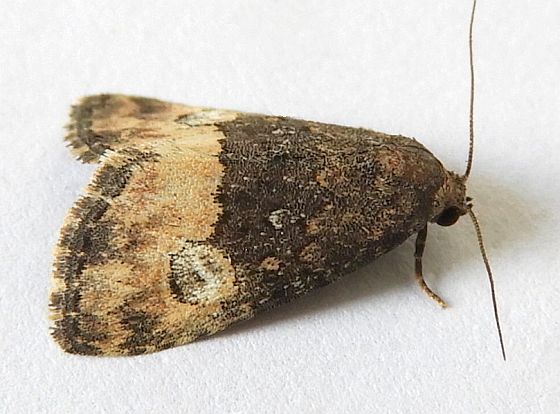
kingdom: Animalia
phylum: Arthropoda
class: Insecta
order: Lepidoptera
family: Noctuidae
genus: Ozarba
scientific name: Ozarba propera
